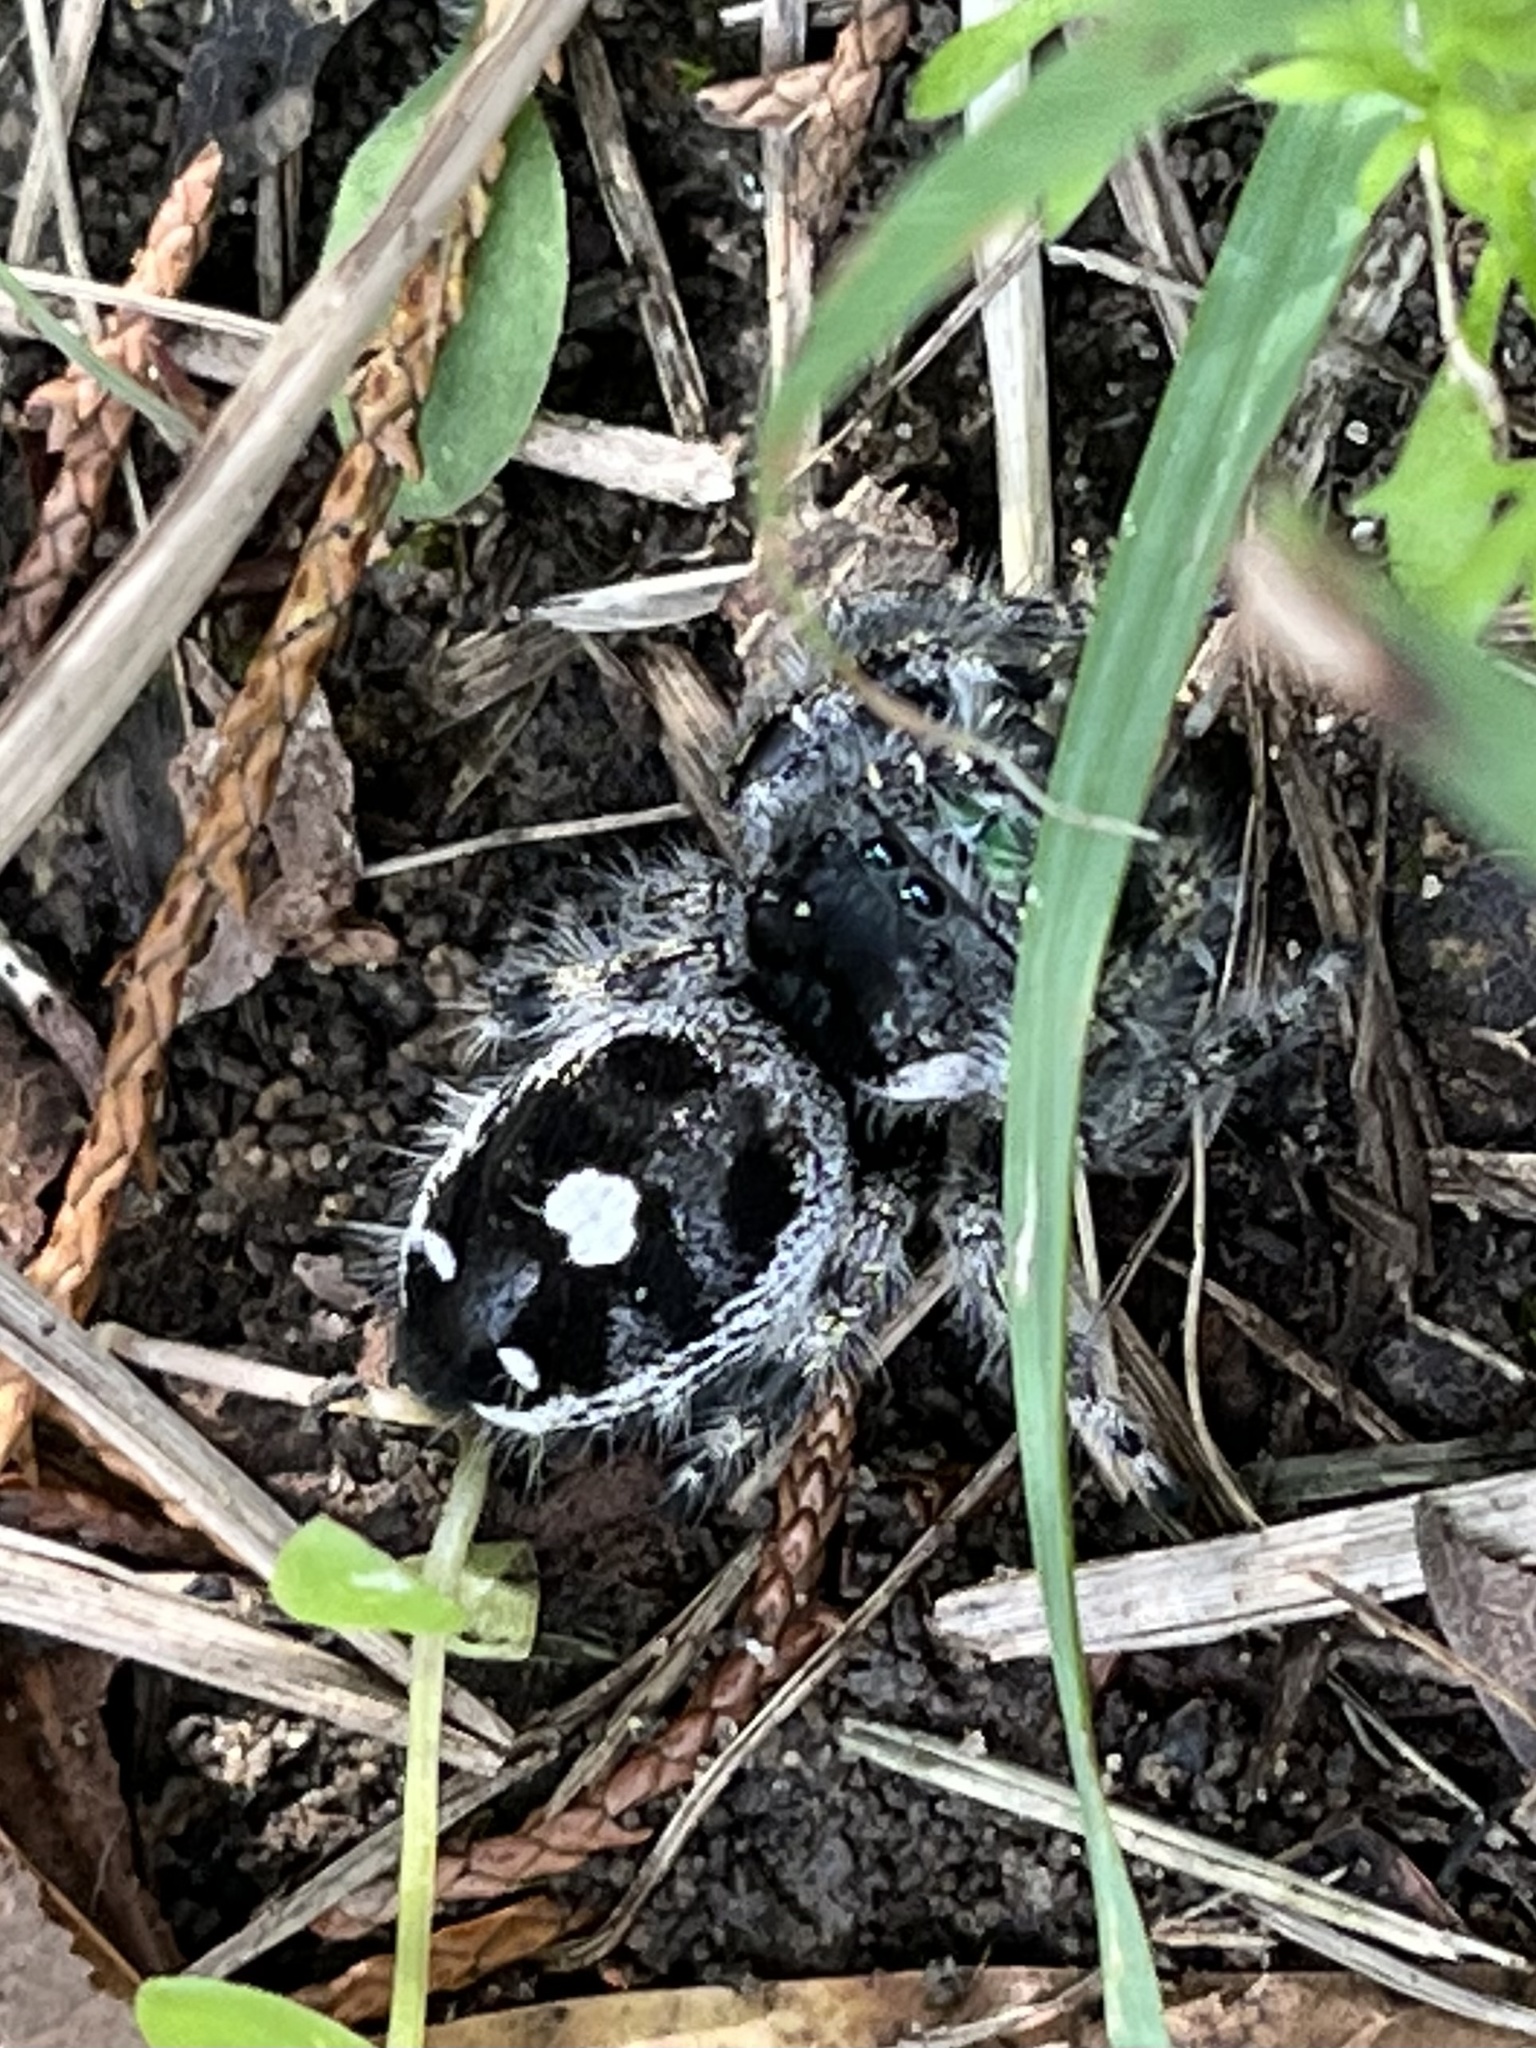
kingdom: Animalia
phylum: Arthropoda
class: Arachnida
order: Araneae
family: Salticidae
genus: Phidippus
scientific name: Phidippus audax
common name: Bold jumper
